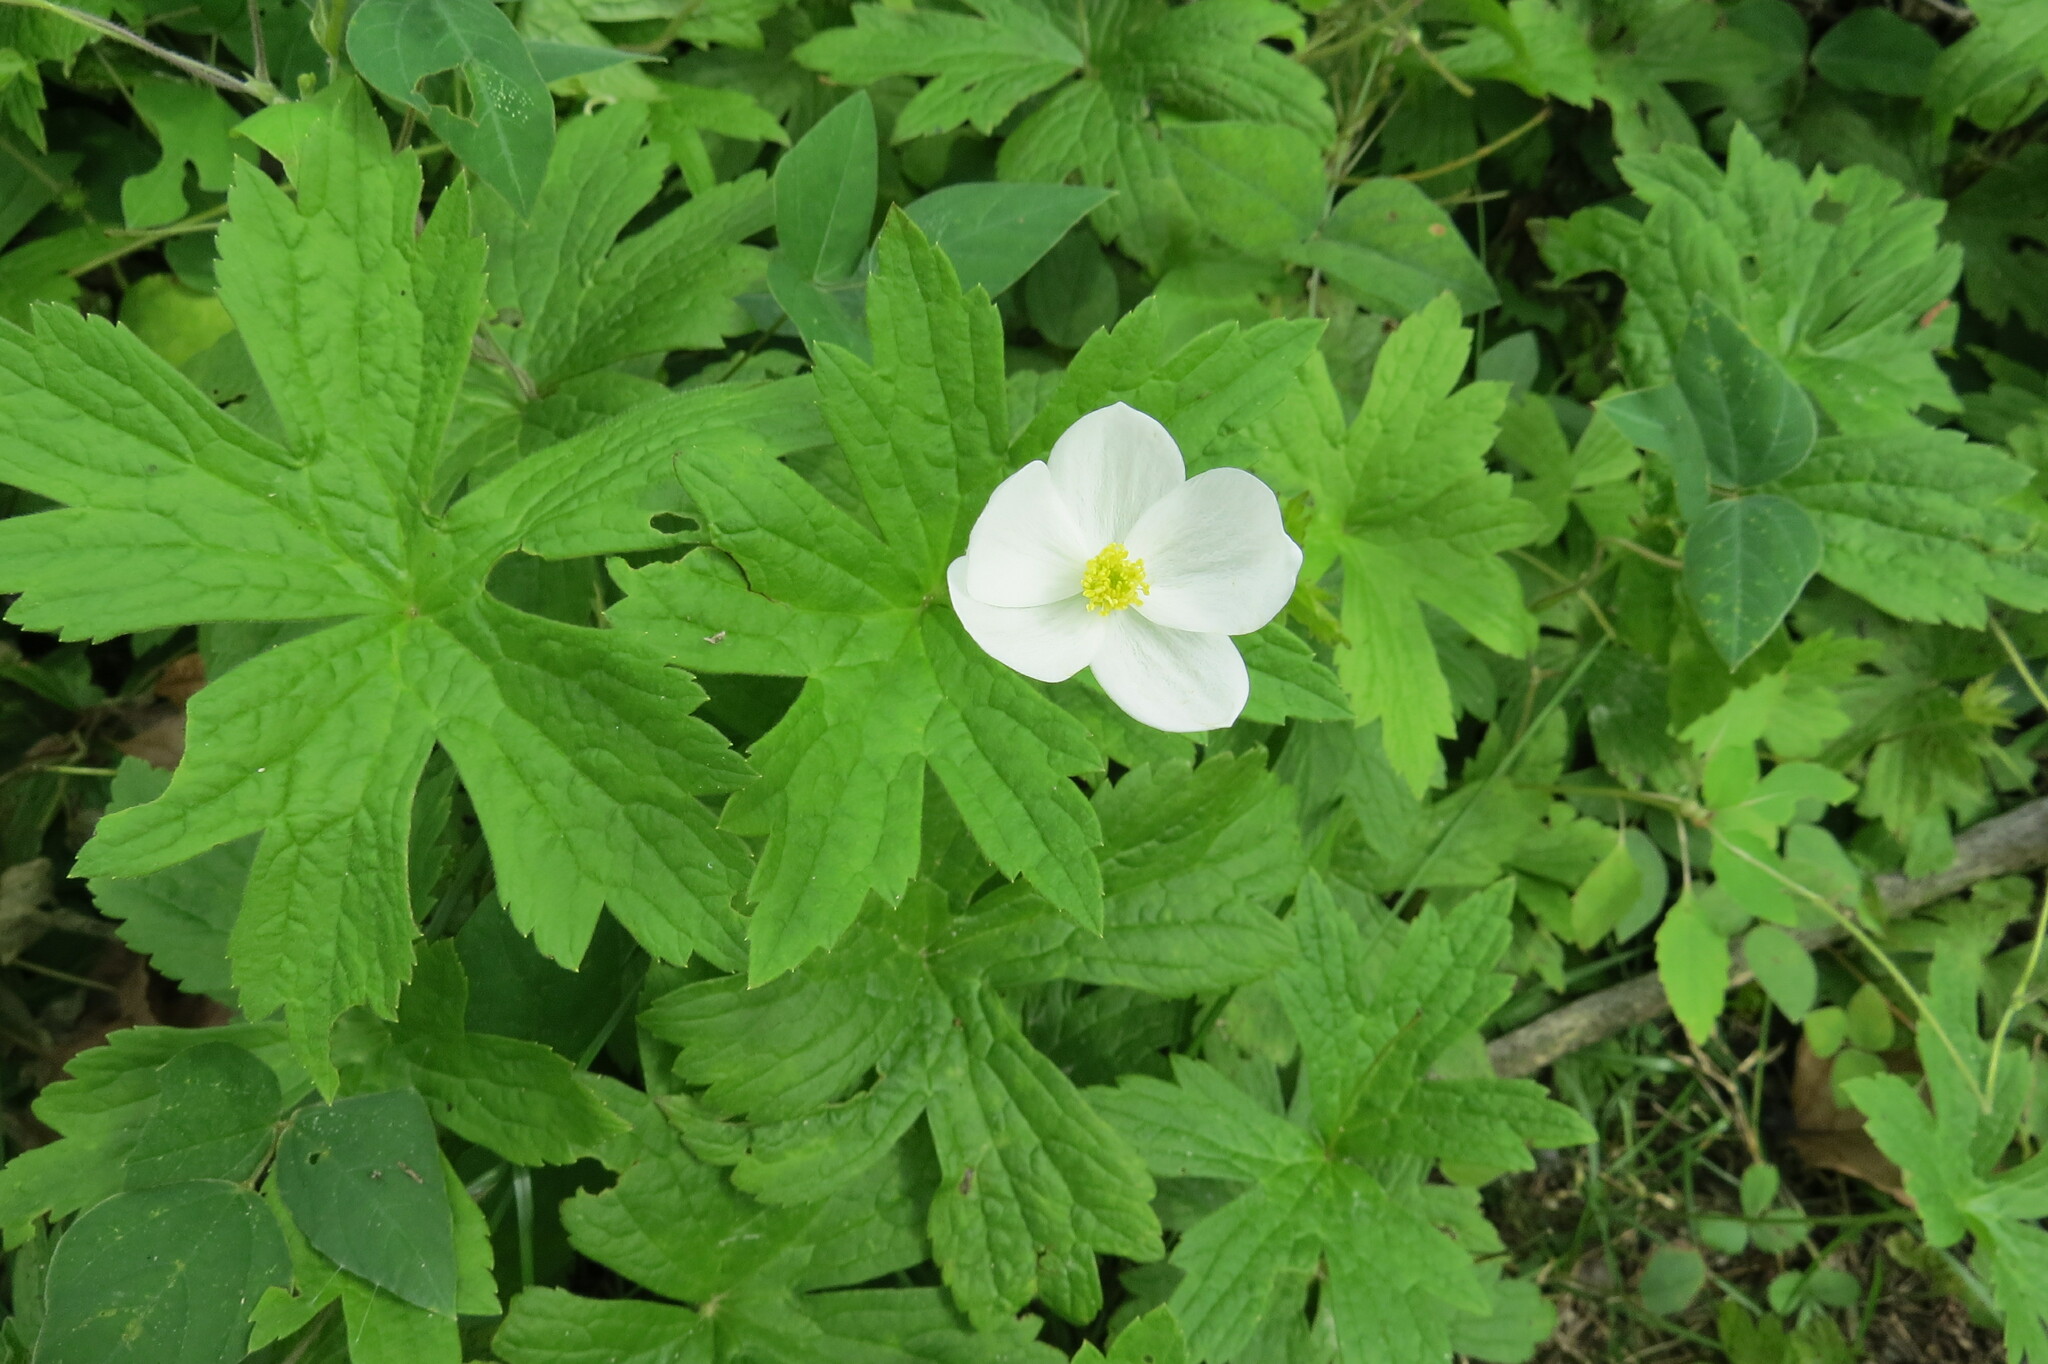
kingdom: Plantae
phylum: Tracheophyta
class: Magnoliopsida
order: Ranunculales
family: Ranunculaceae
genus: Anemonastrum
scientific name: Anemonastrum canadense
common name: Canada anemone
